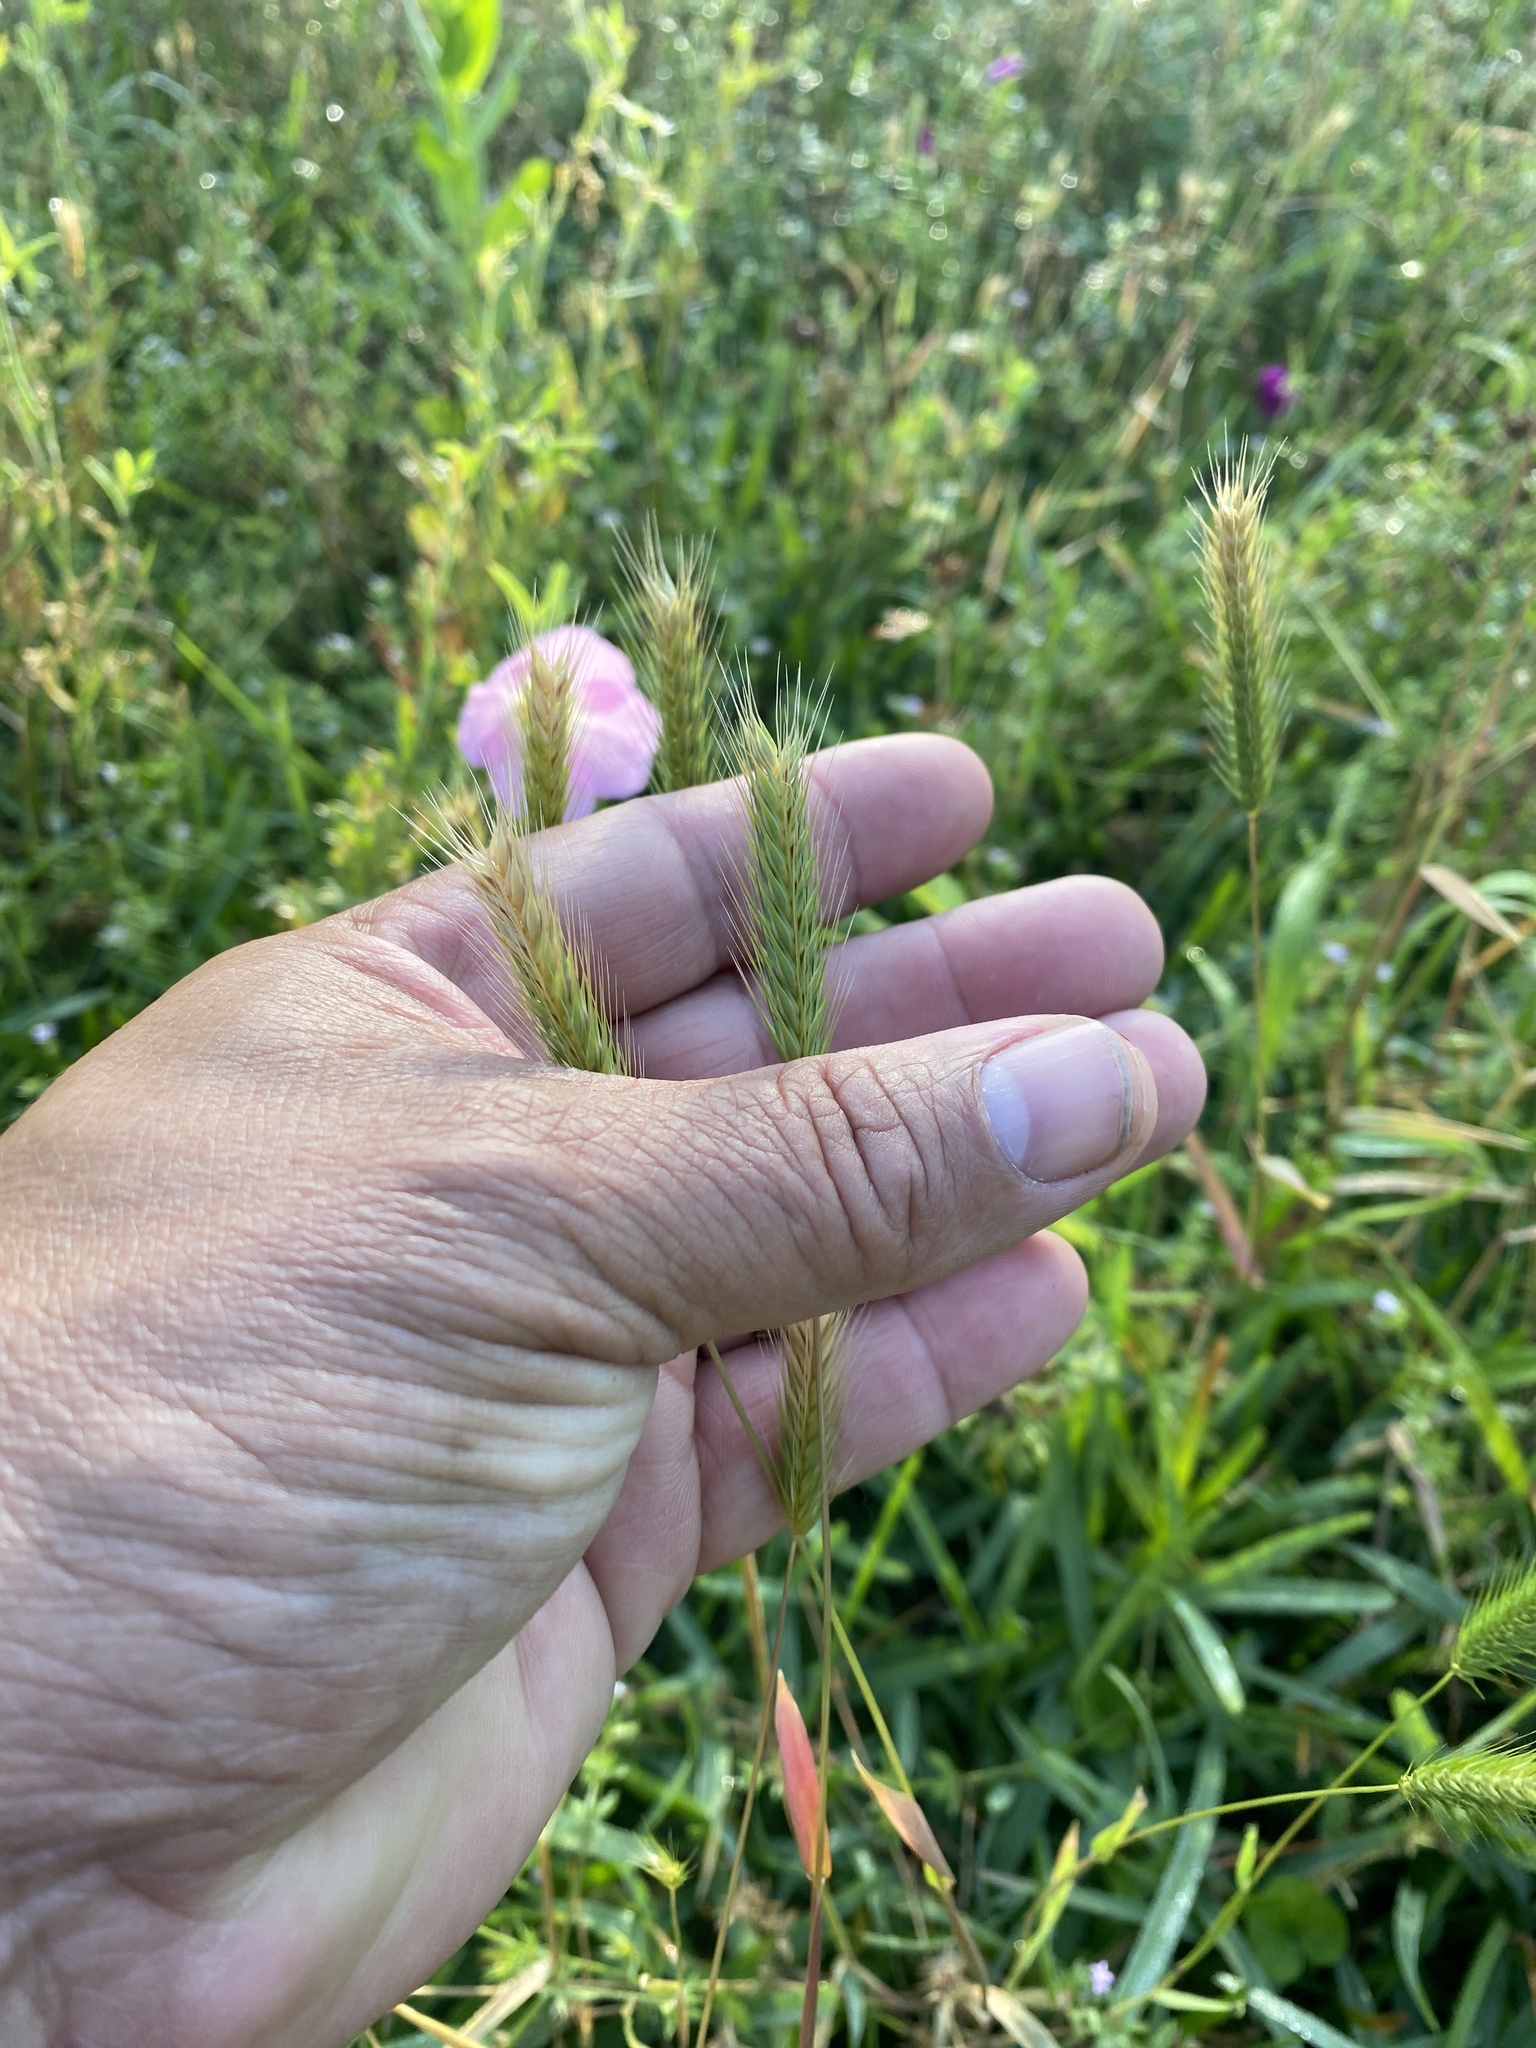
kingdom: Plantae
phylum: Tracheophyta
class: Liliopsida
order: Poales
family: Poaceae
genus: Hordeum
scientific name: Hordeum pusillum
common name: Little barley
